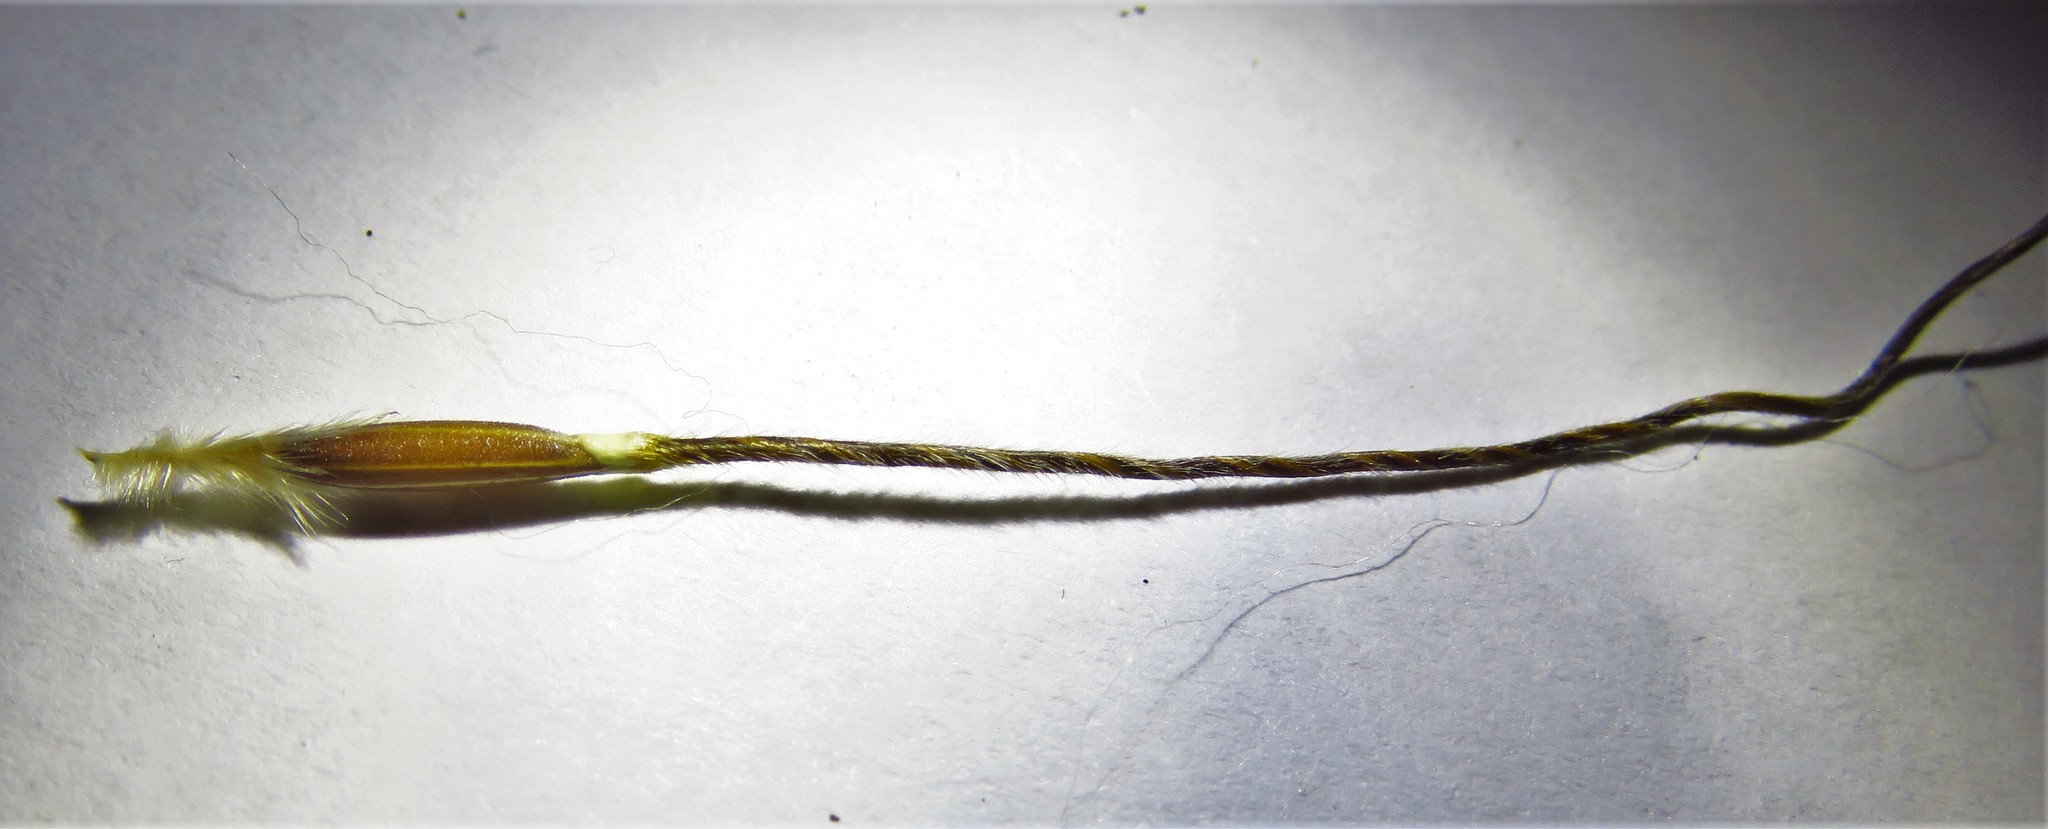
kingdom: Plantae
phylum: Tracheophyta
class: Liliopsida
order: Poales
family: Poaceae
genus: Nassella
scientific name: Nassella leucotricha
